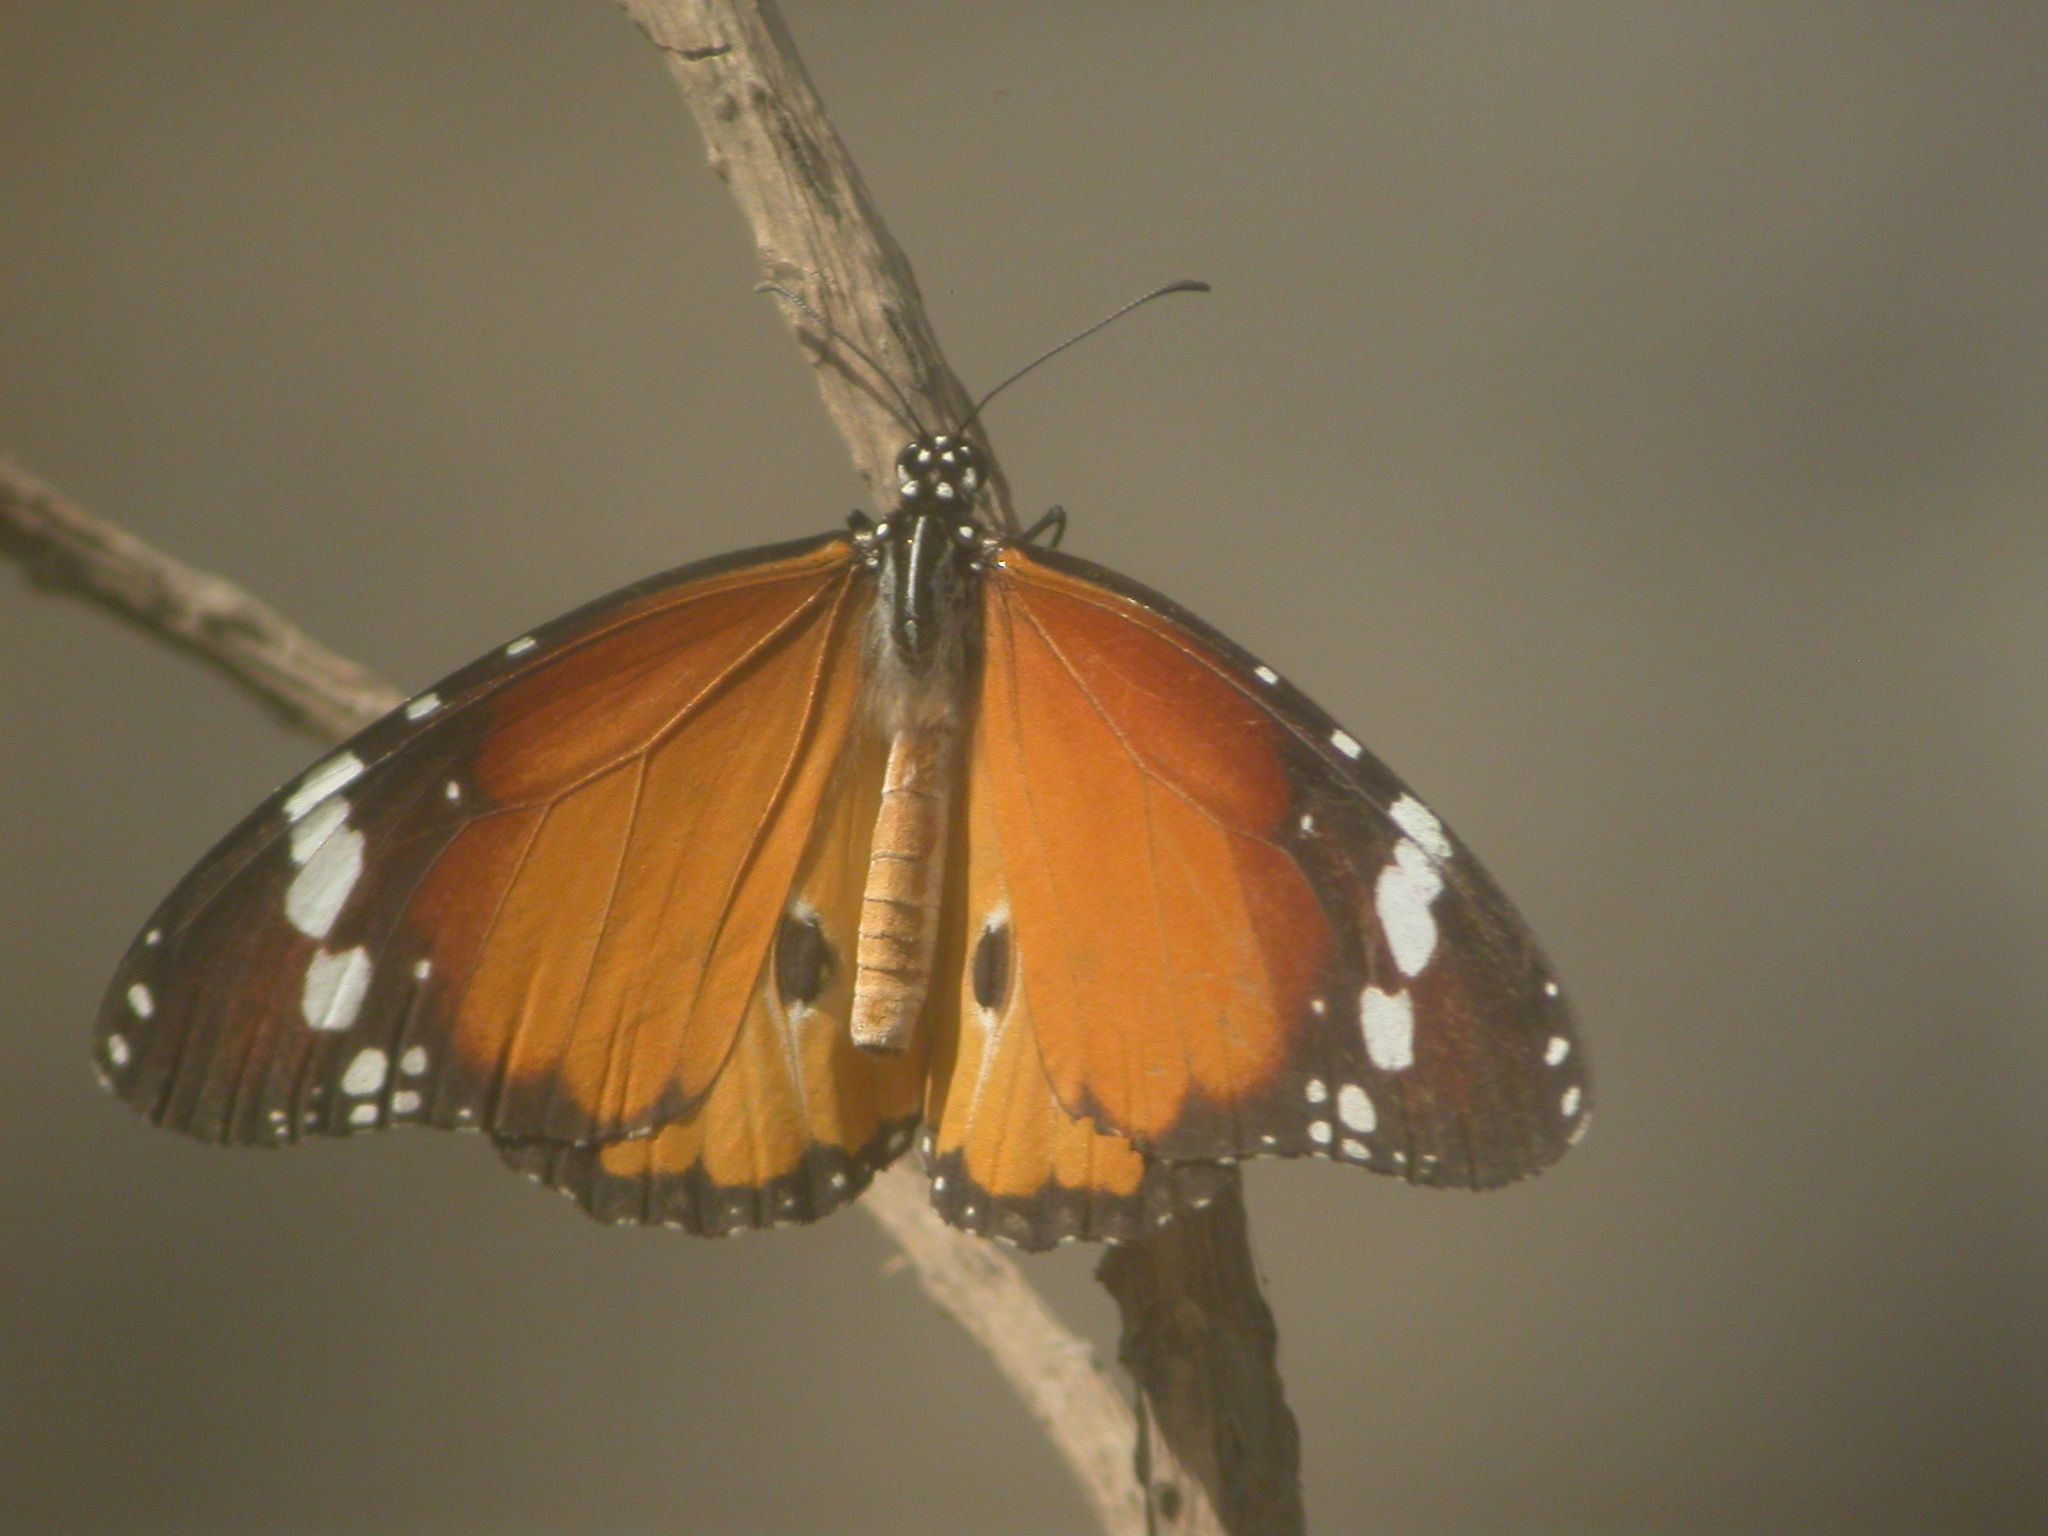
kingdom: Animalia
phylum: Arthropoda
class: Insecta
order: Lepidoptera
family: Nymphalidae
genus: Danaus
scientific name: Danaus chrysippus
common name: Plain tiger
